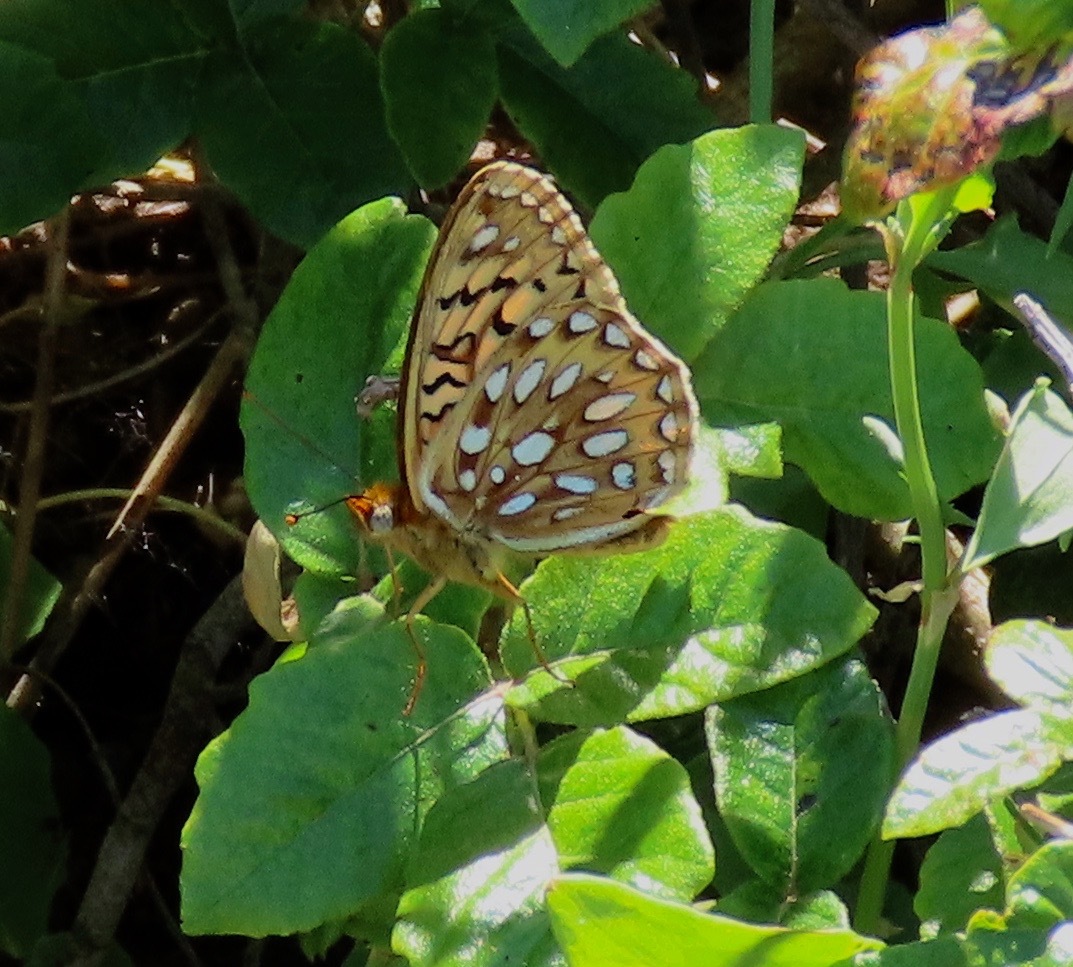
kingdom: Animalia
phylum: Arthropoda
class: Insecta
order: Lepidoptera
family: Nymphalidae
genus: Speyeria
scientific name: Speyeria callippe
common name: Callippe fritillary
